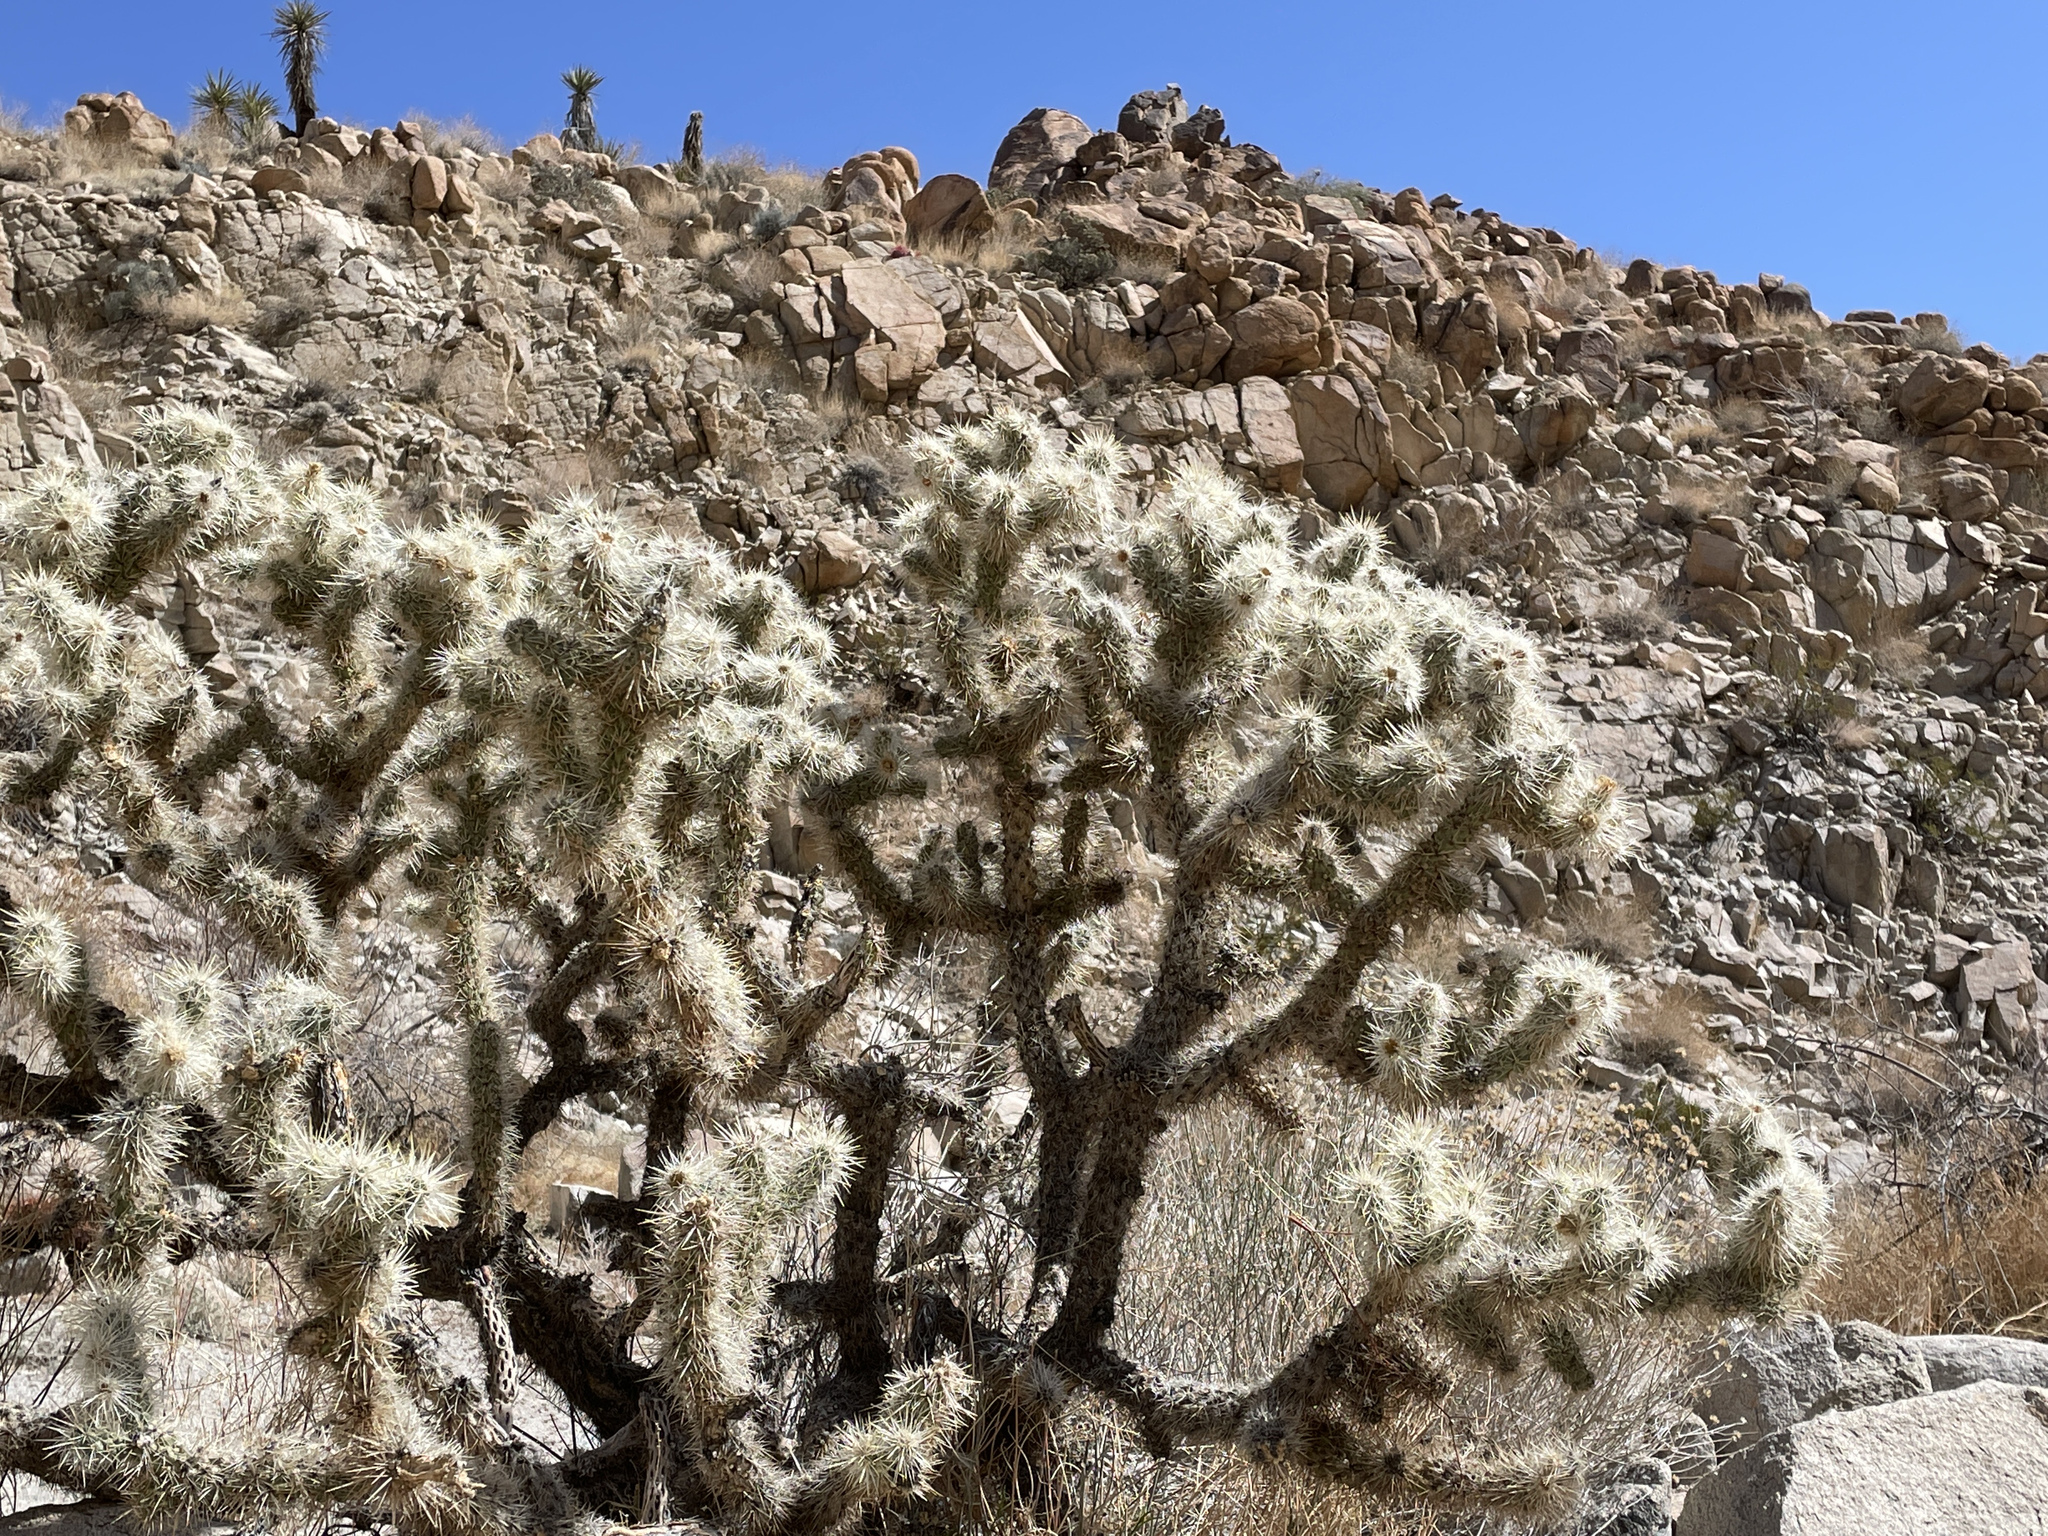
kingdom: Plantae
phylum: Tracheophyta
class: Magnoliopsida
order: Caryophyllales
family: Cactaceae
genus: Cylindropuntia
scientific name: Cylindropuntia echinocarpa
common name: Ground cholla
